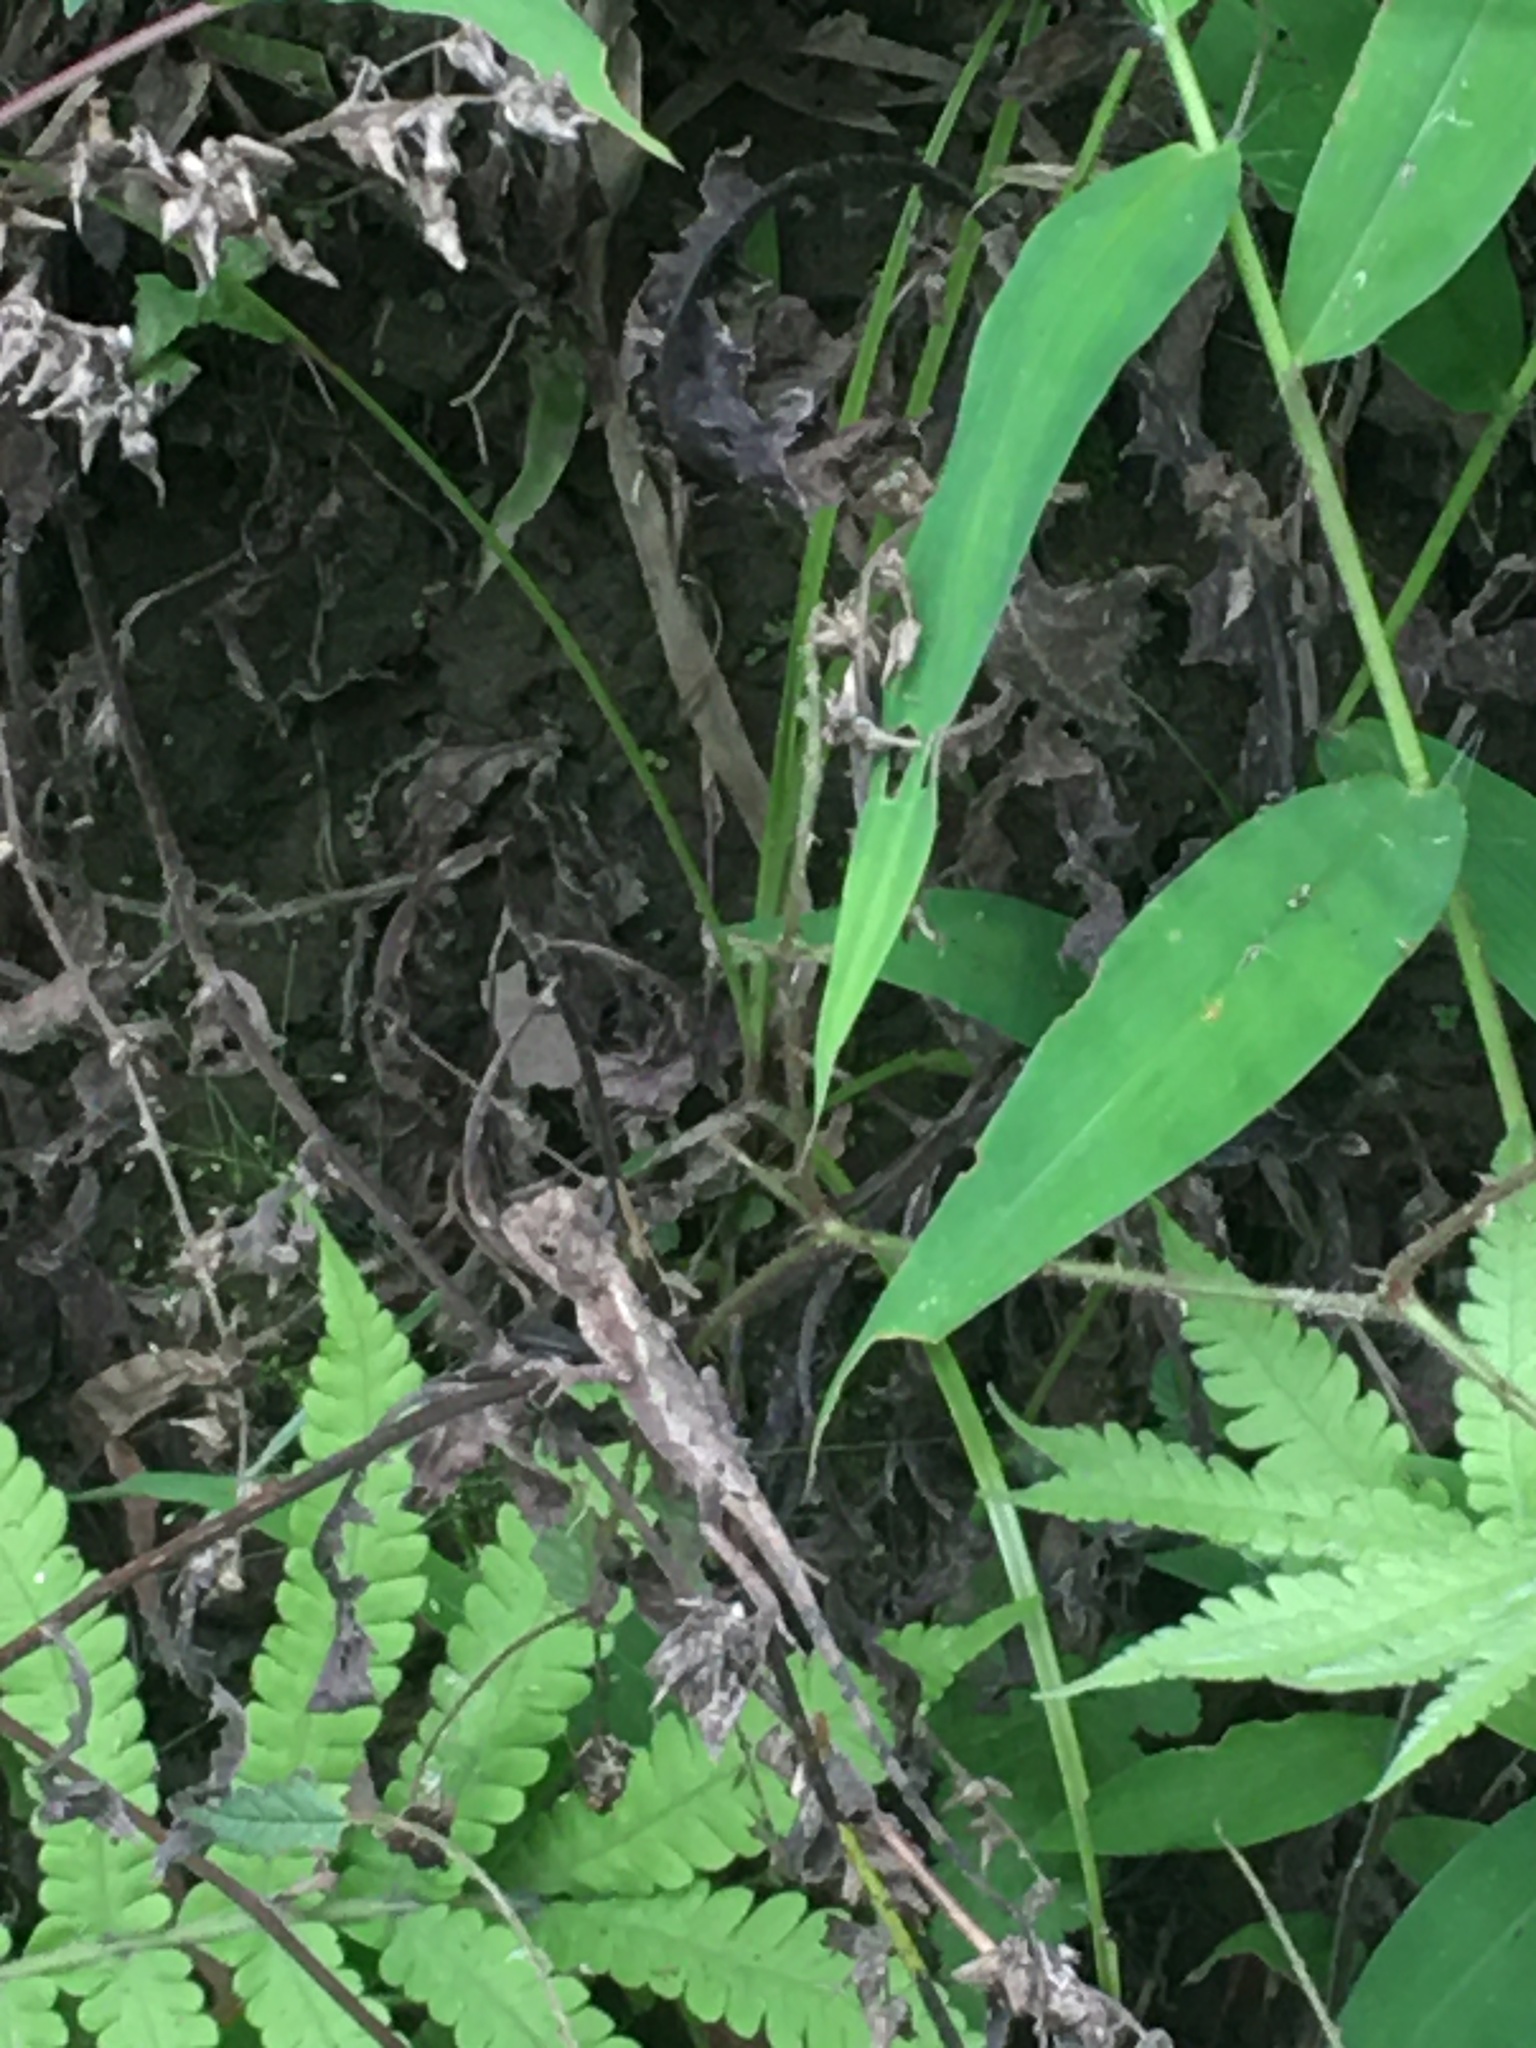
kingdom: Animalia
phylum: Chordata
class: Squamata
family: Agamidae
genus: Diploderma
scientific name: Diploderma swinhonis
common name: Taiwan japalure
